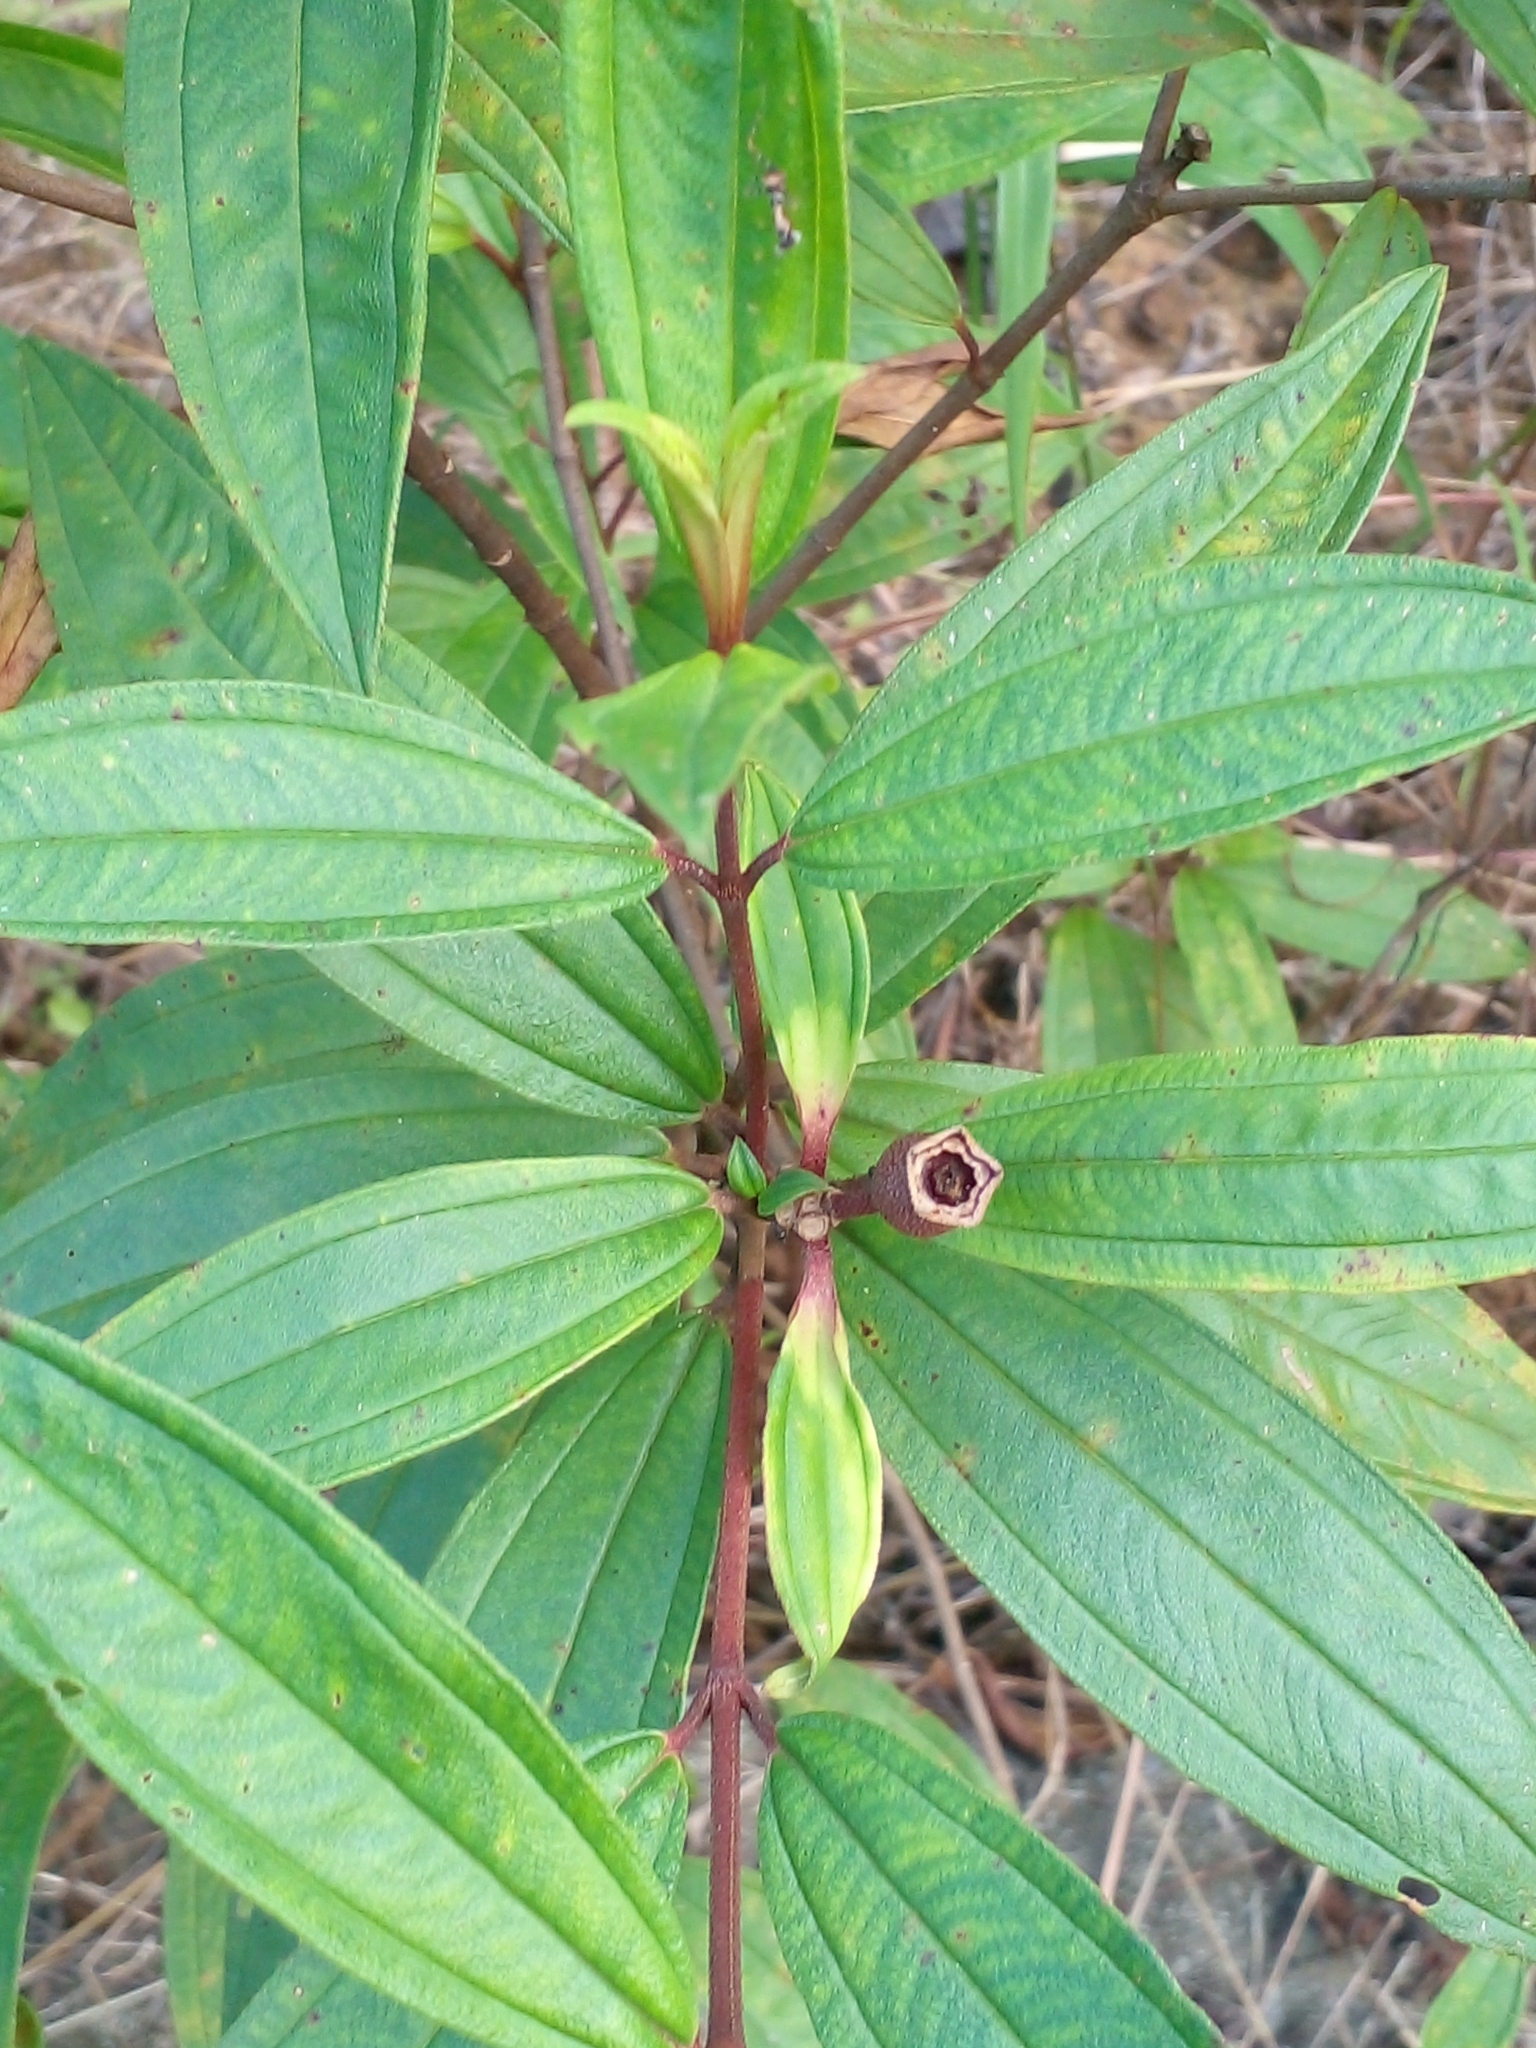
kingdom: Plantae
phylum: Tracheophyta
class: Magnoliopsida
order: Myrtales
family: Melastomataceae
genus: Melastoma
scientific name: Melastoma malabathricum
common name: Indian-rhododendron
